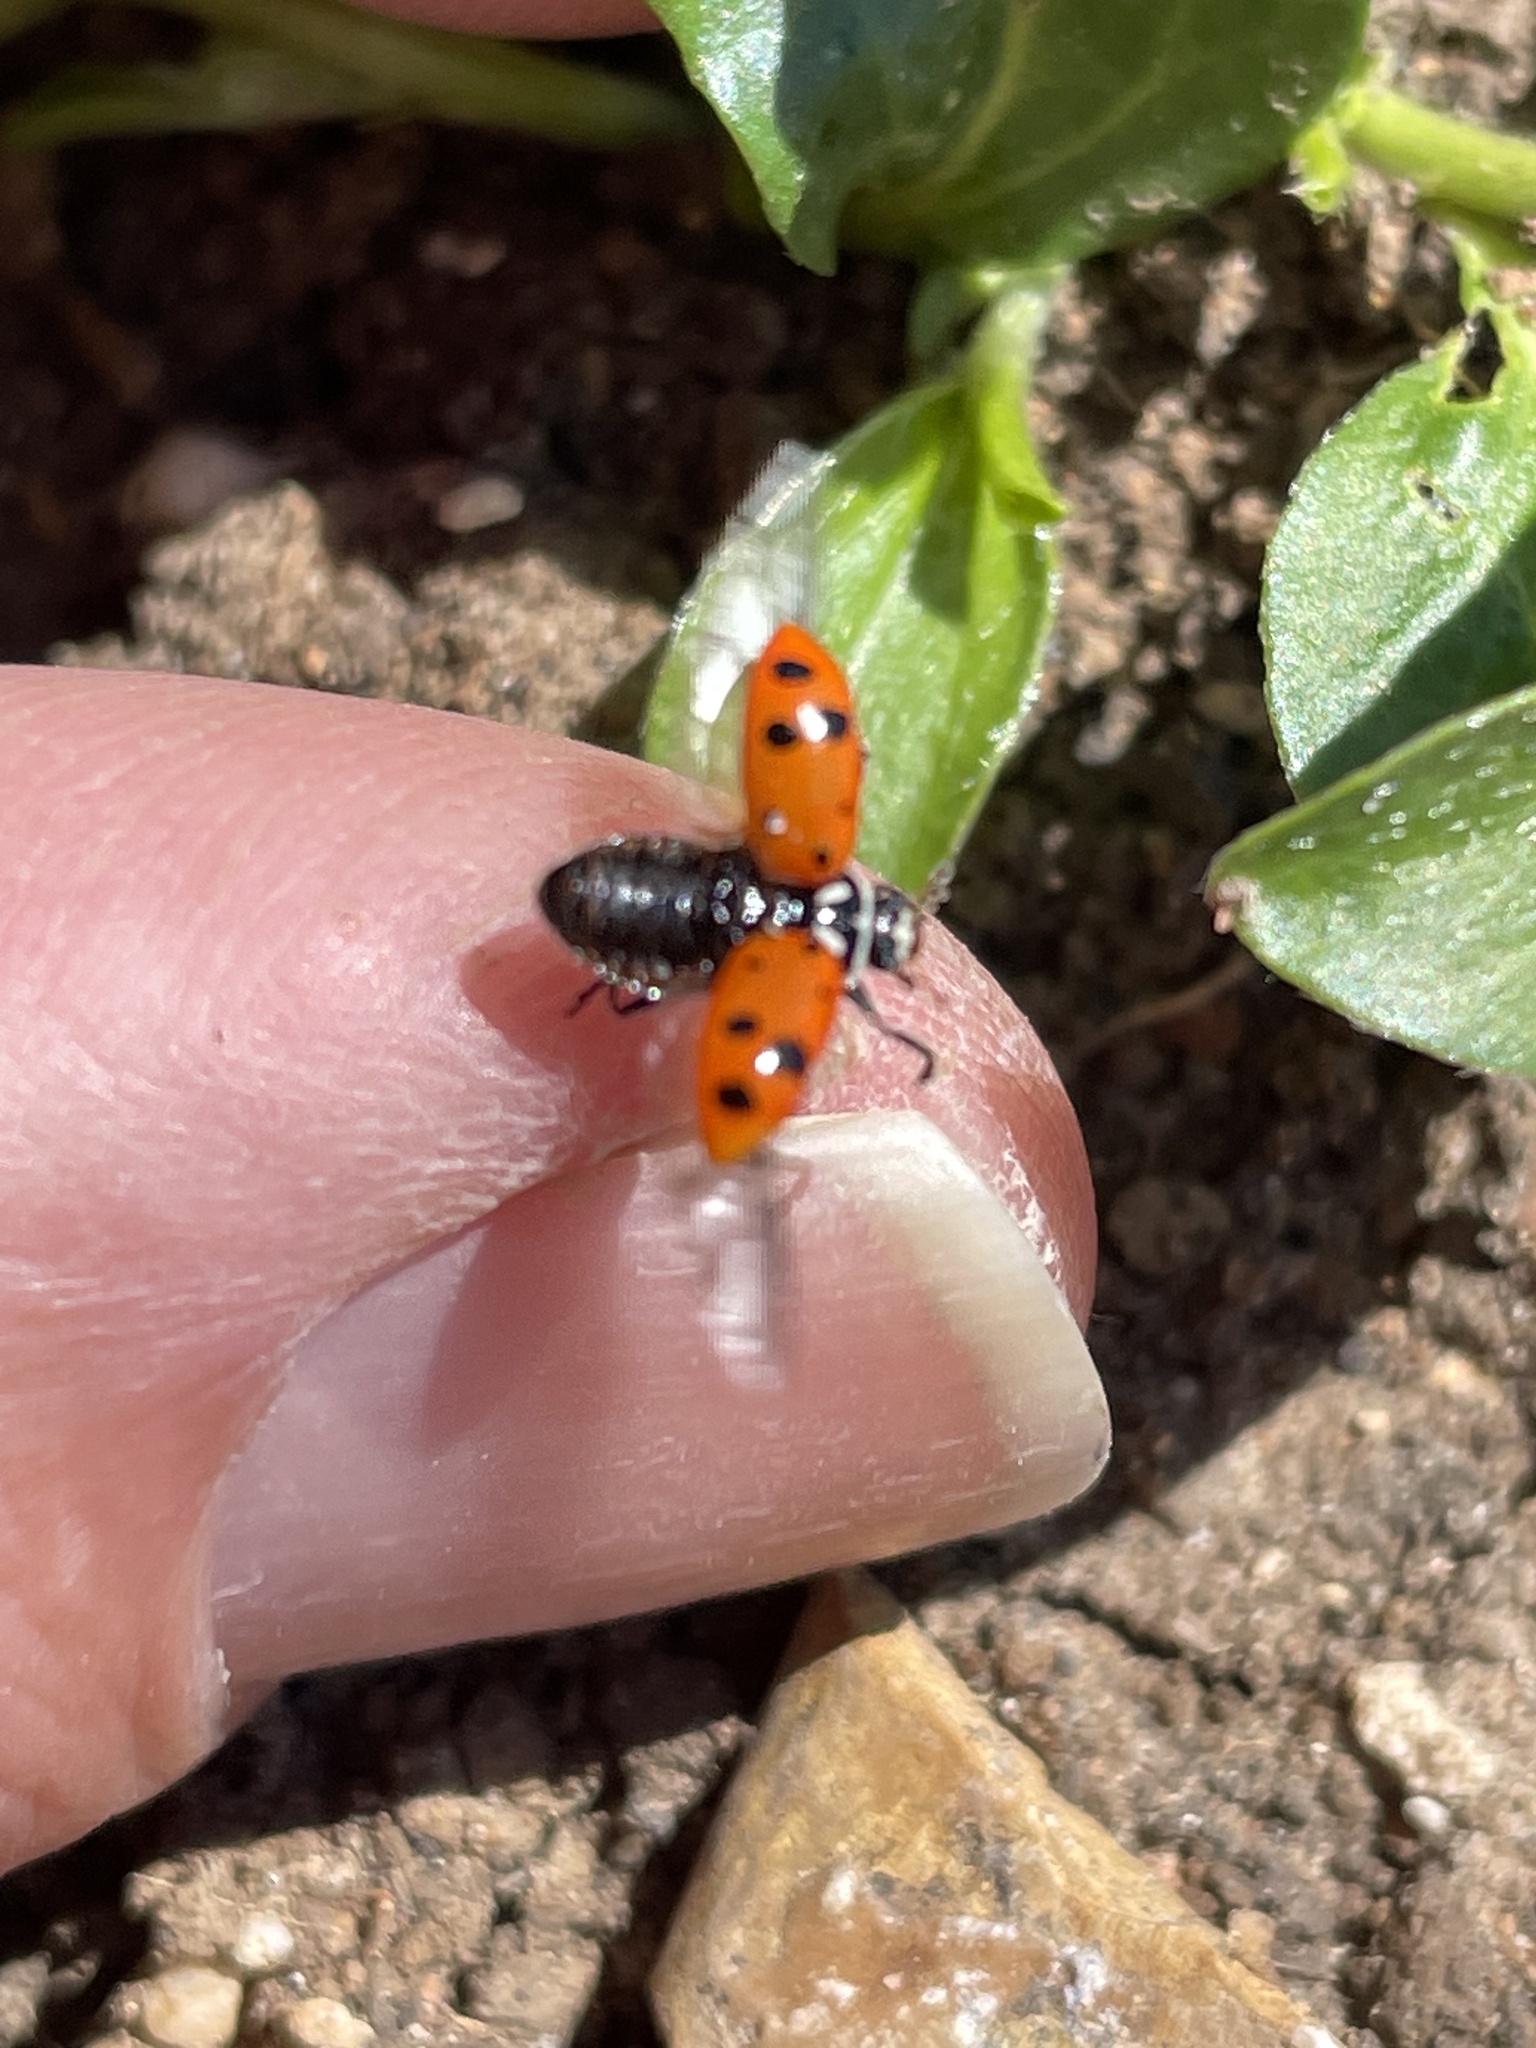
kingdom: Animalia
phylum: Arthropoda
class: Insecta
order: Coleoptera
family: Coccinellidae
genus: Hippodamia
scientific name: Hippodamia convergens
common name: Convergent lady beetle
